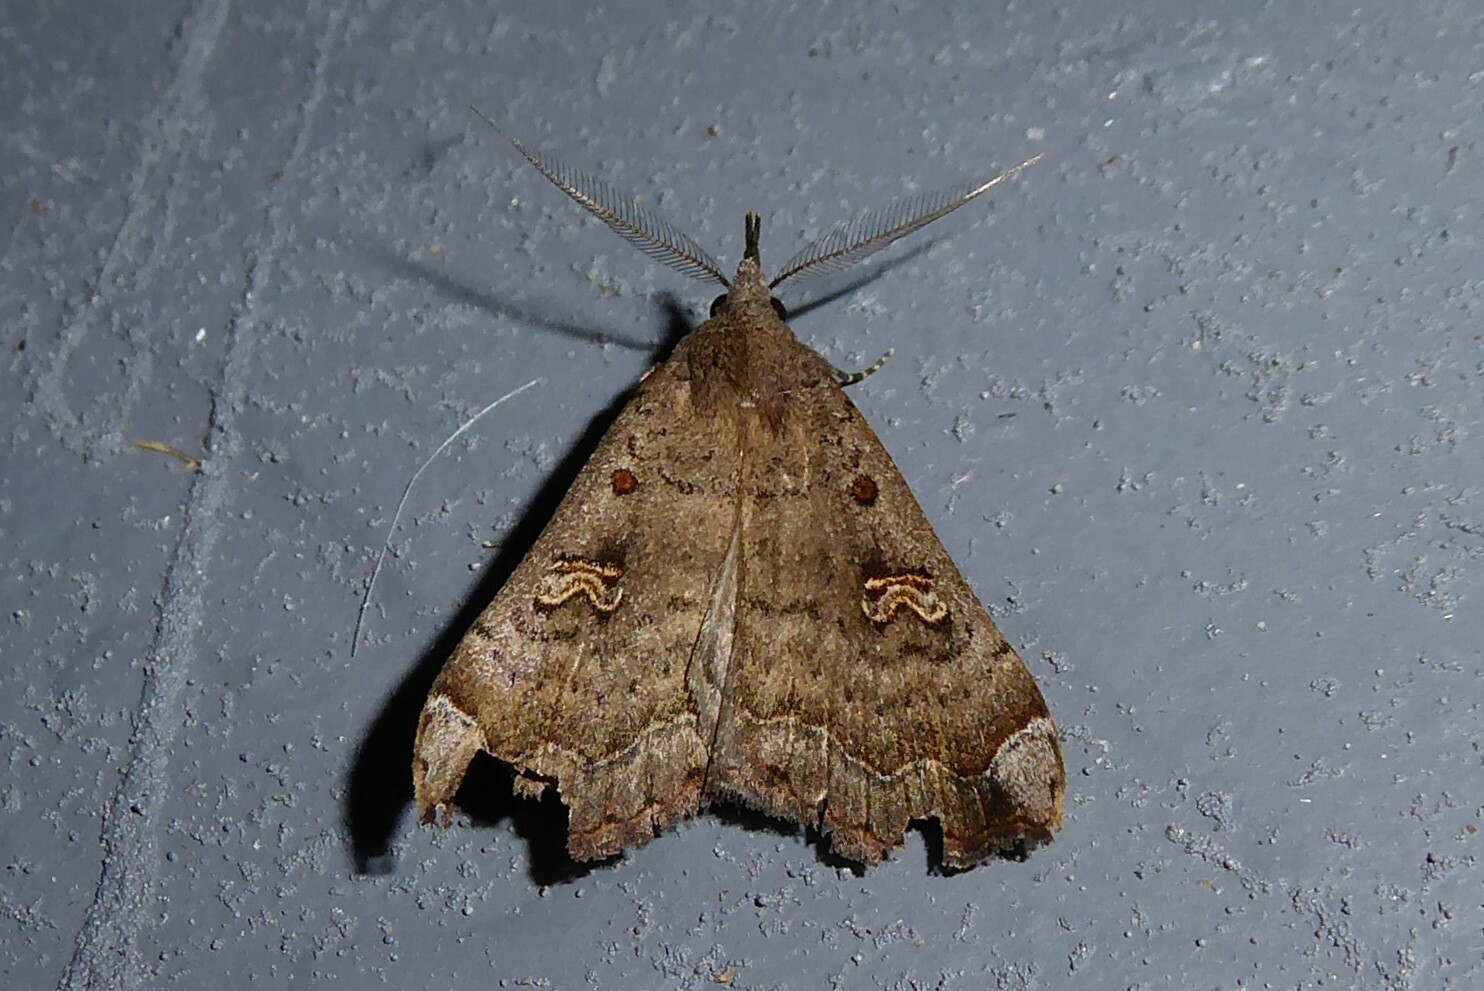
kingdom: Animalia
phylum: Arthropoda
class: Insecta
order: Lepidoptera
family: Erebidae
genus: Rhapsa
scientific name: Rhapsa scotosialis
